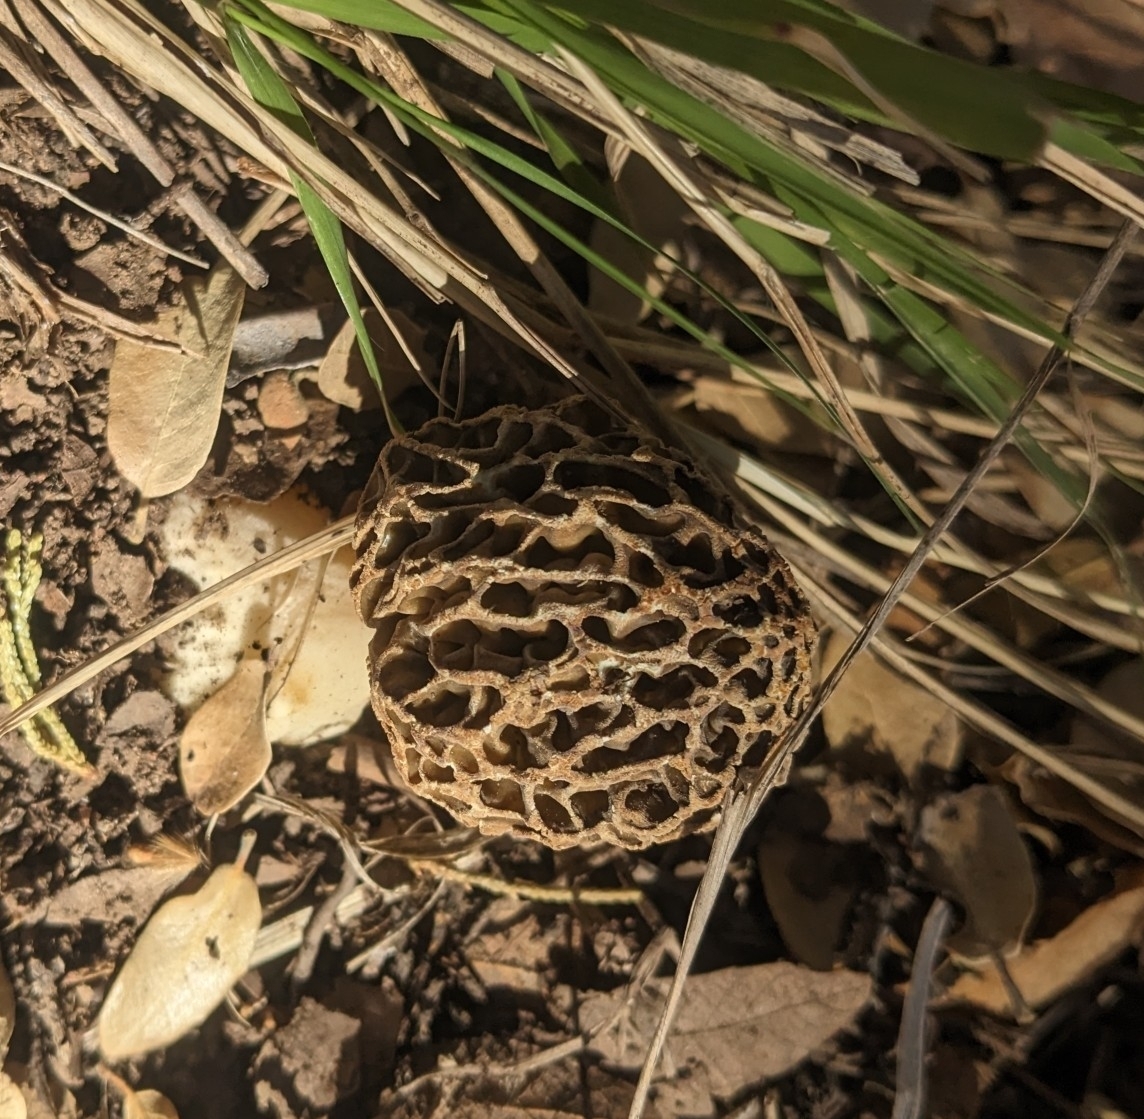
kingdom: Fungi
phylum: Ascomycota
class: Pezizomycetes
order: Pezizales
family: Morchellaceae
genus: Morchella
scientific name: Morchella americana
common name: White morel
